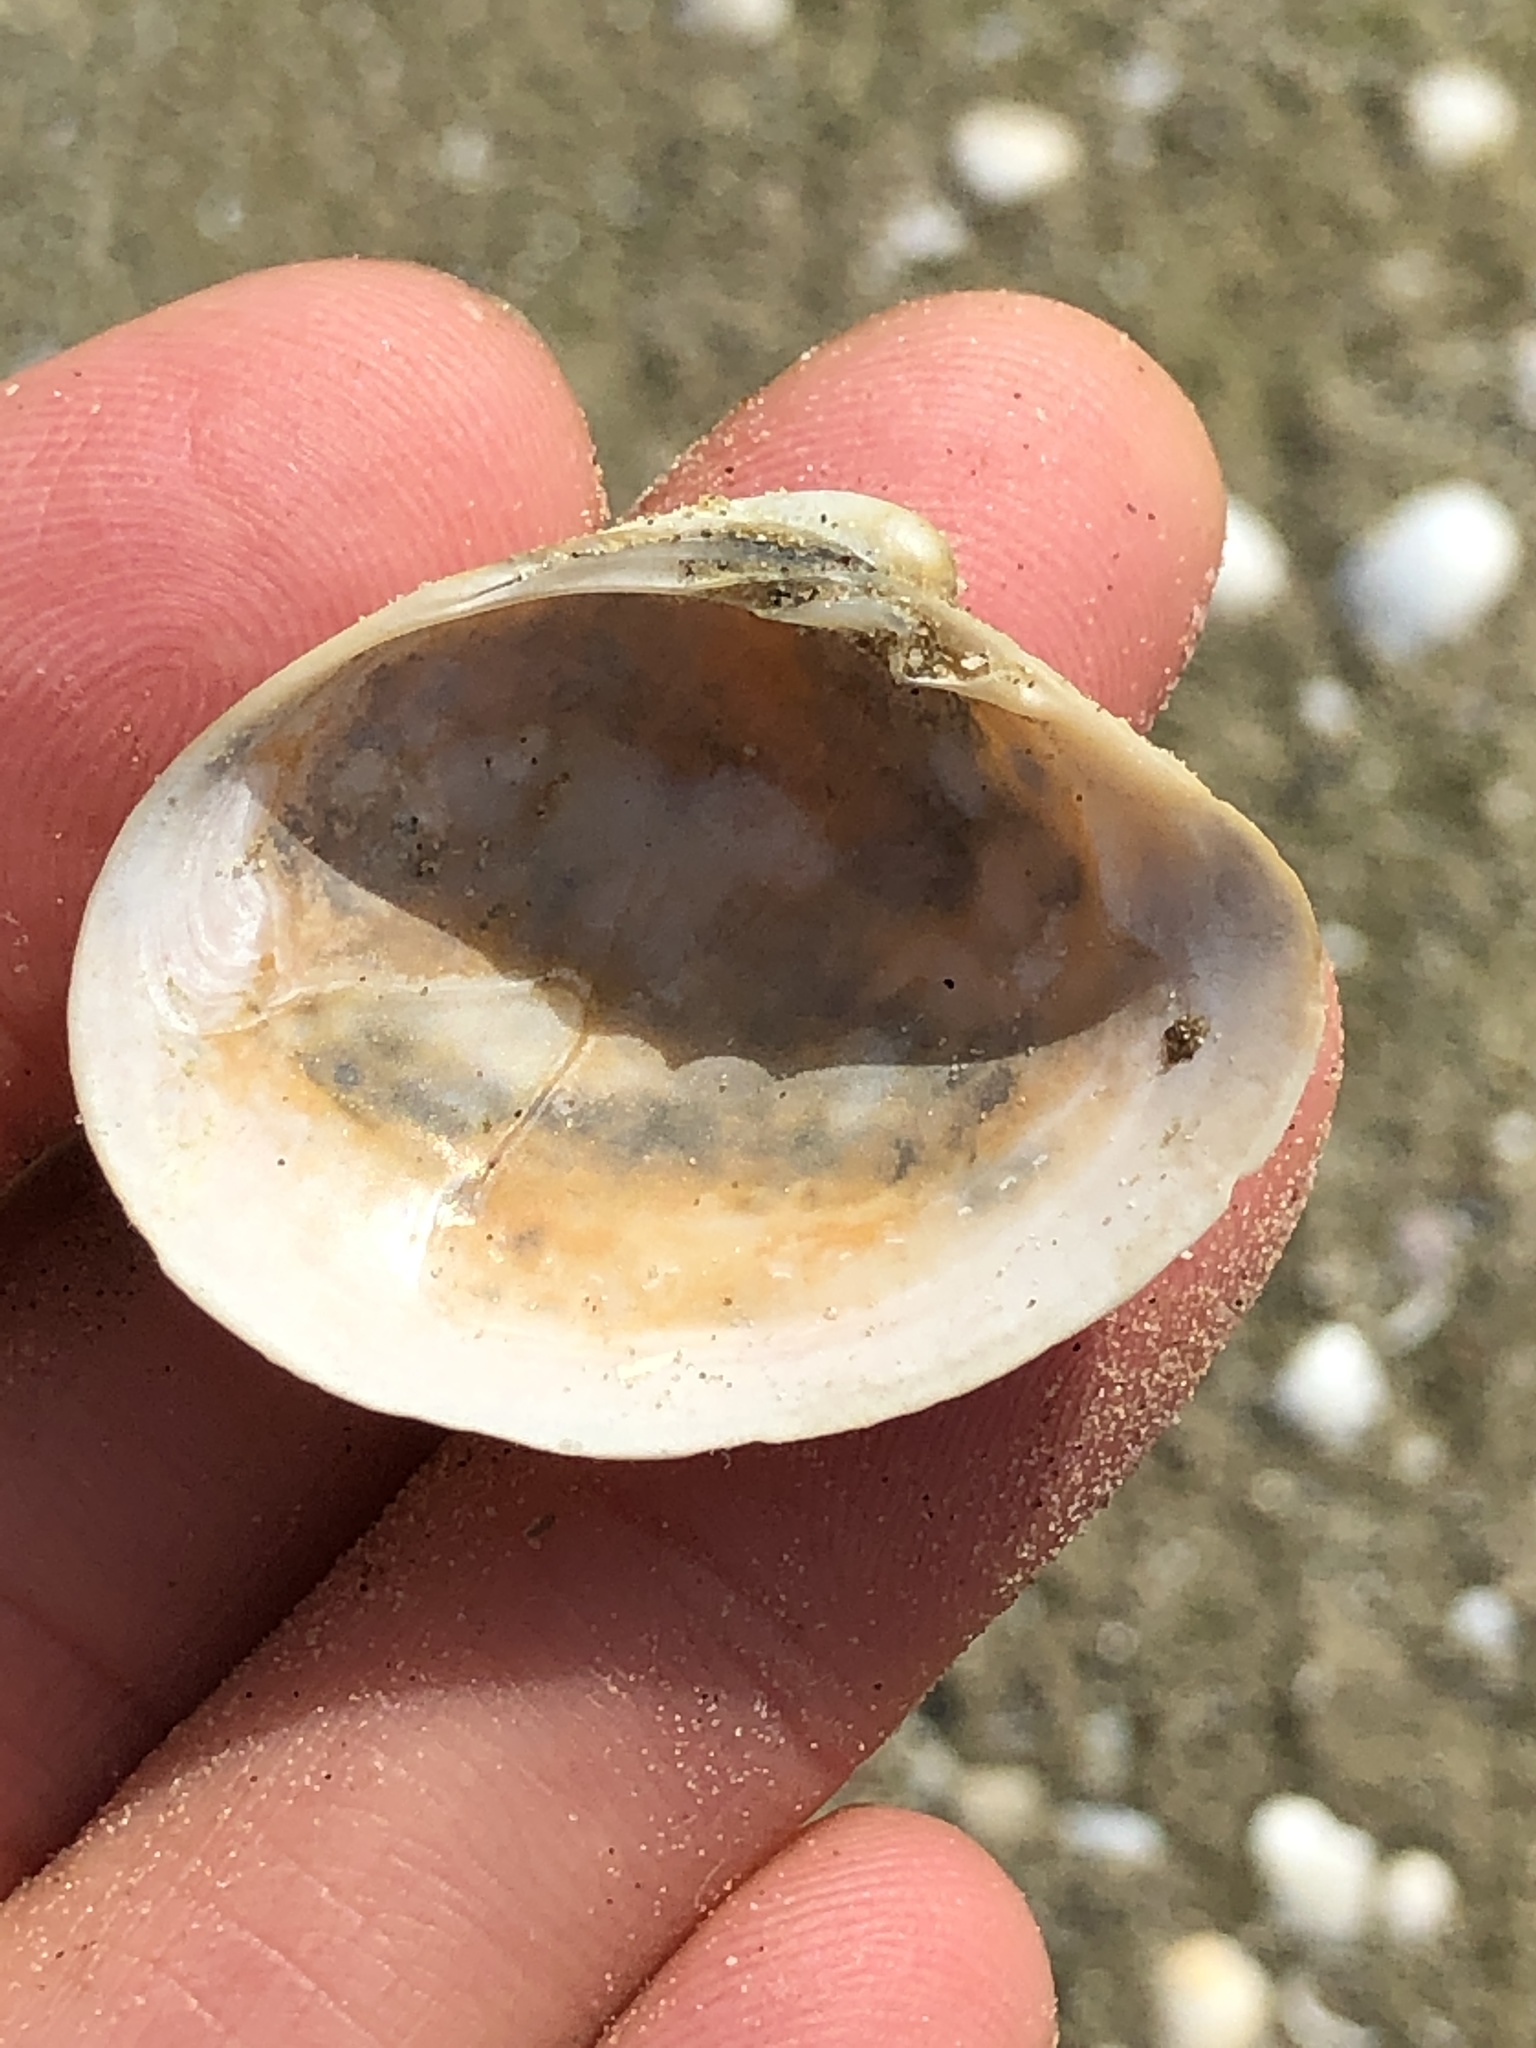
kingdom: Animalia
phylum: Mollusca
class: Bivalvia
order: Venerida
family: Veneridae
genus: Agriopoma
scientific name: Agriopoma texasianum
